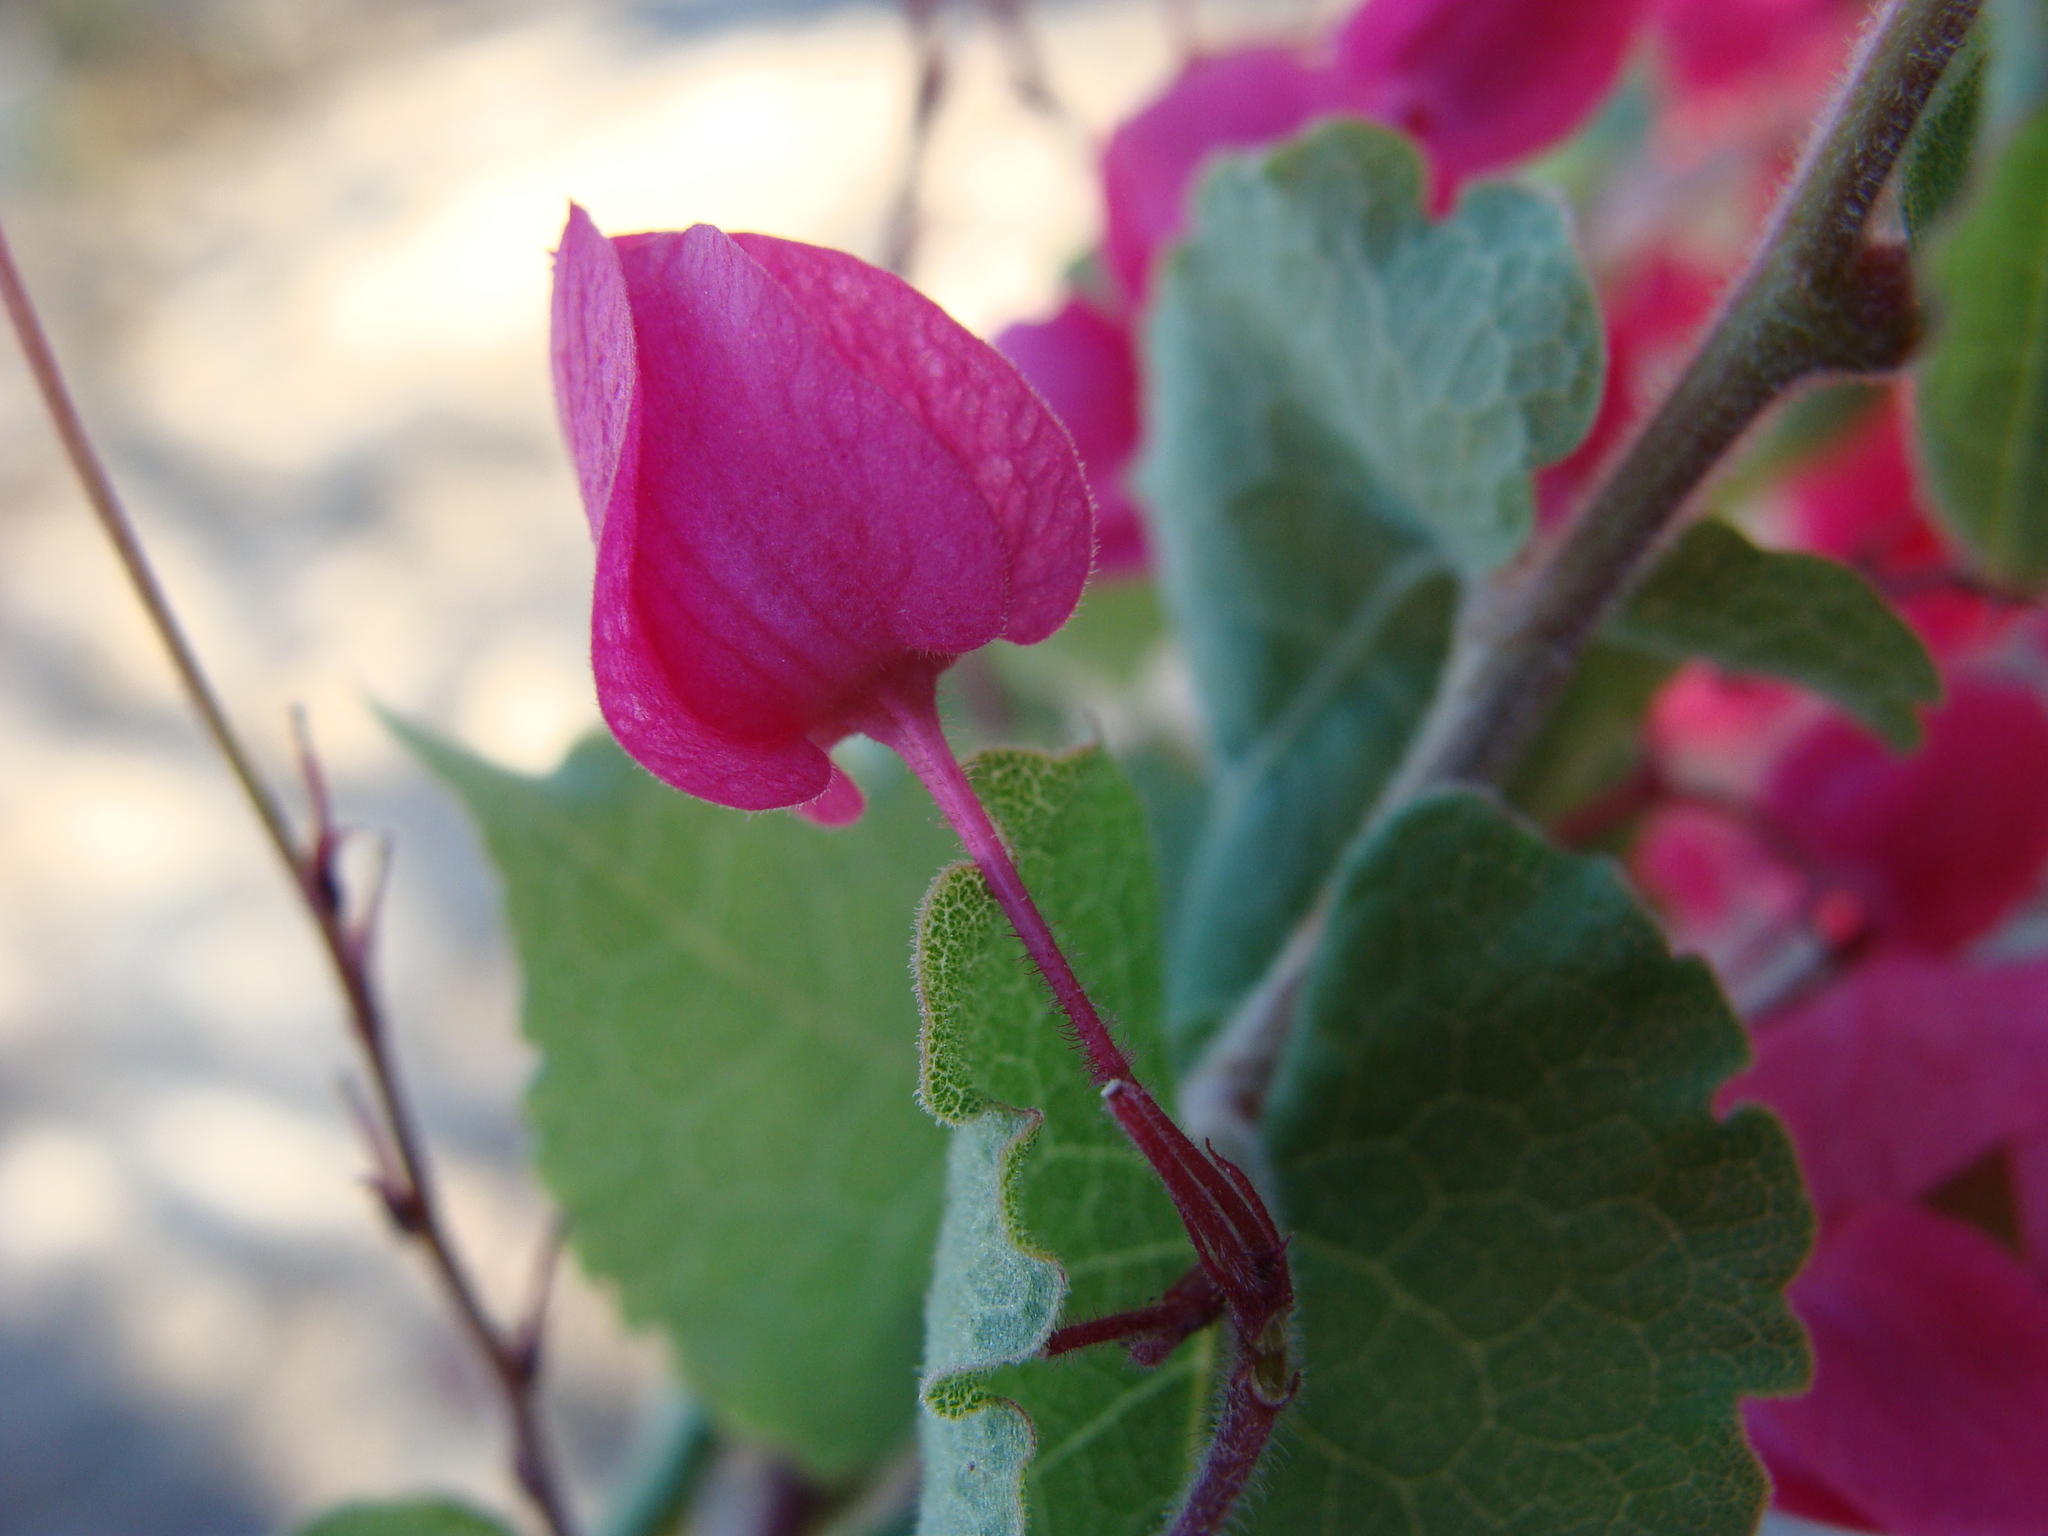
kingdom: Plantae
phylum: Tracheophyta
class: Magnoliopsida
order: Caryophyllales
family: Polygonaceae
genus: Antigonon
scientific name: Antigonon leptopus
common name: Coral vine
